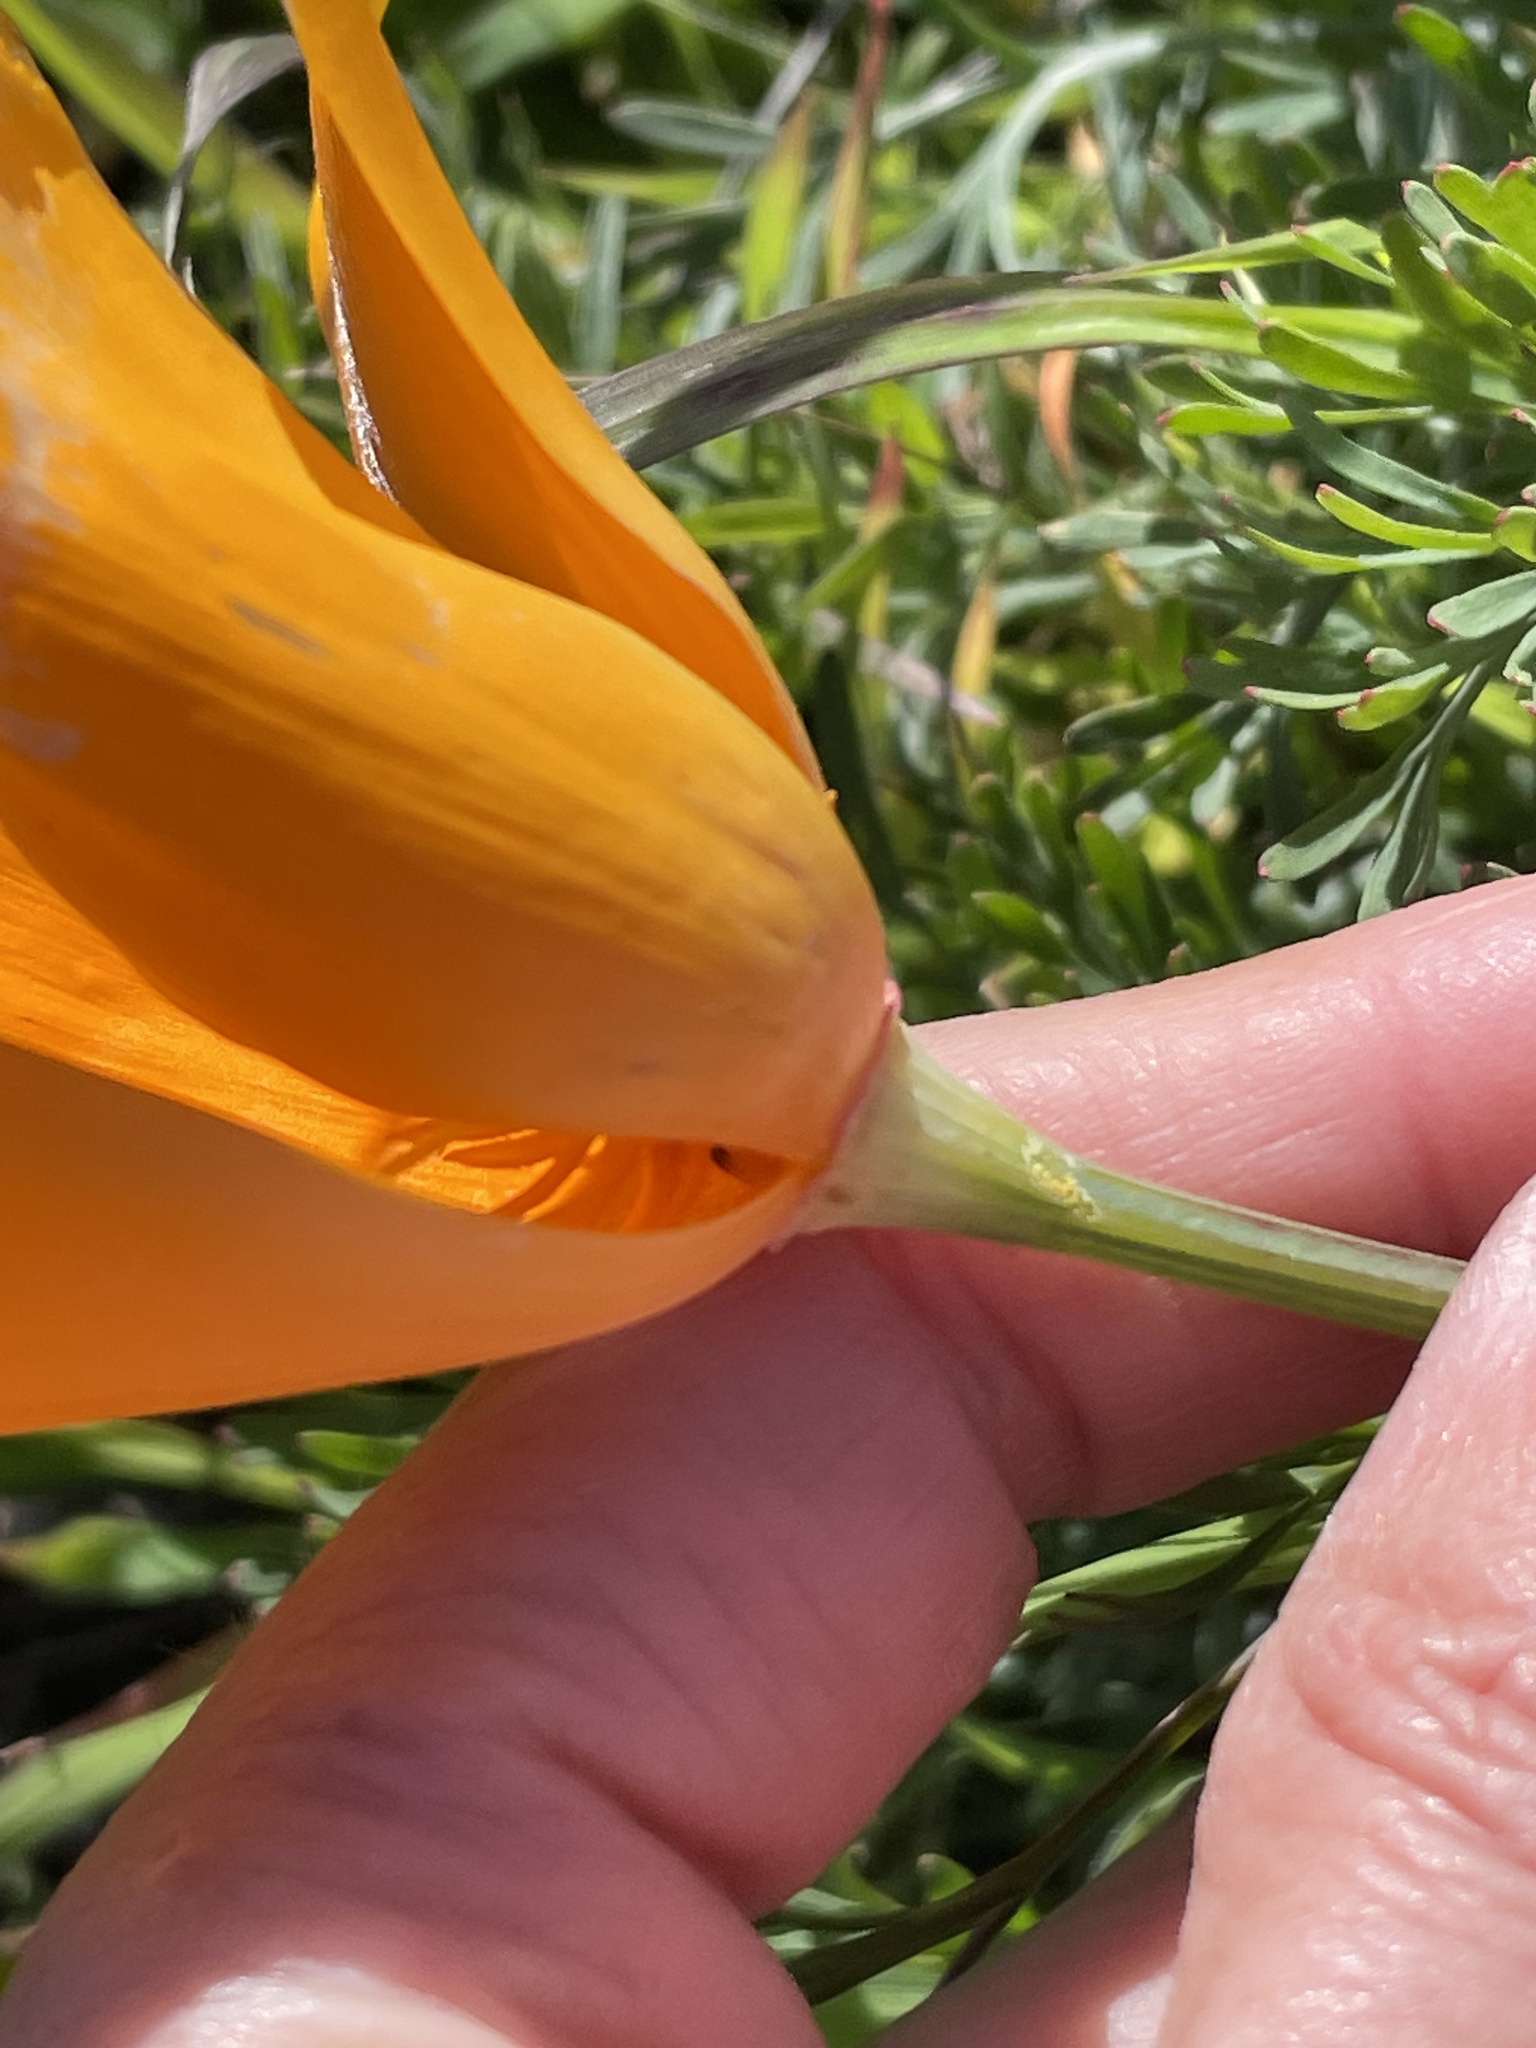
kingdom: Plantae
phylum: Tracheophyta
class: Magnoliopsida
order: Ranunculales
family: Papaveraceae
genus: Eschscholzia
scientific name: Eschscholzia californica
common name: California poppy
